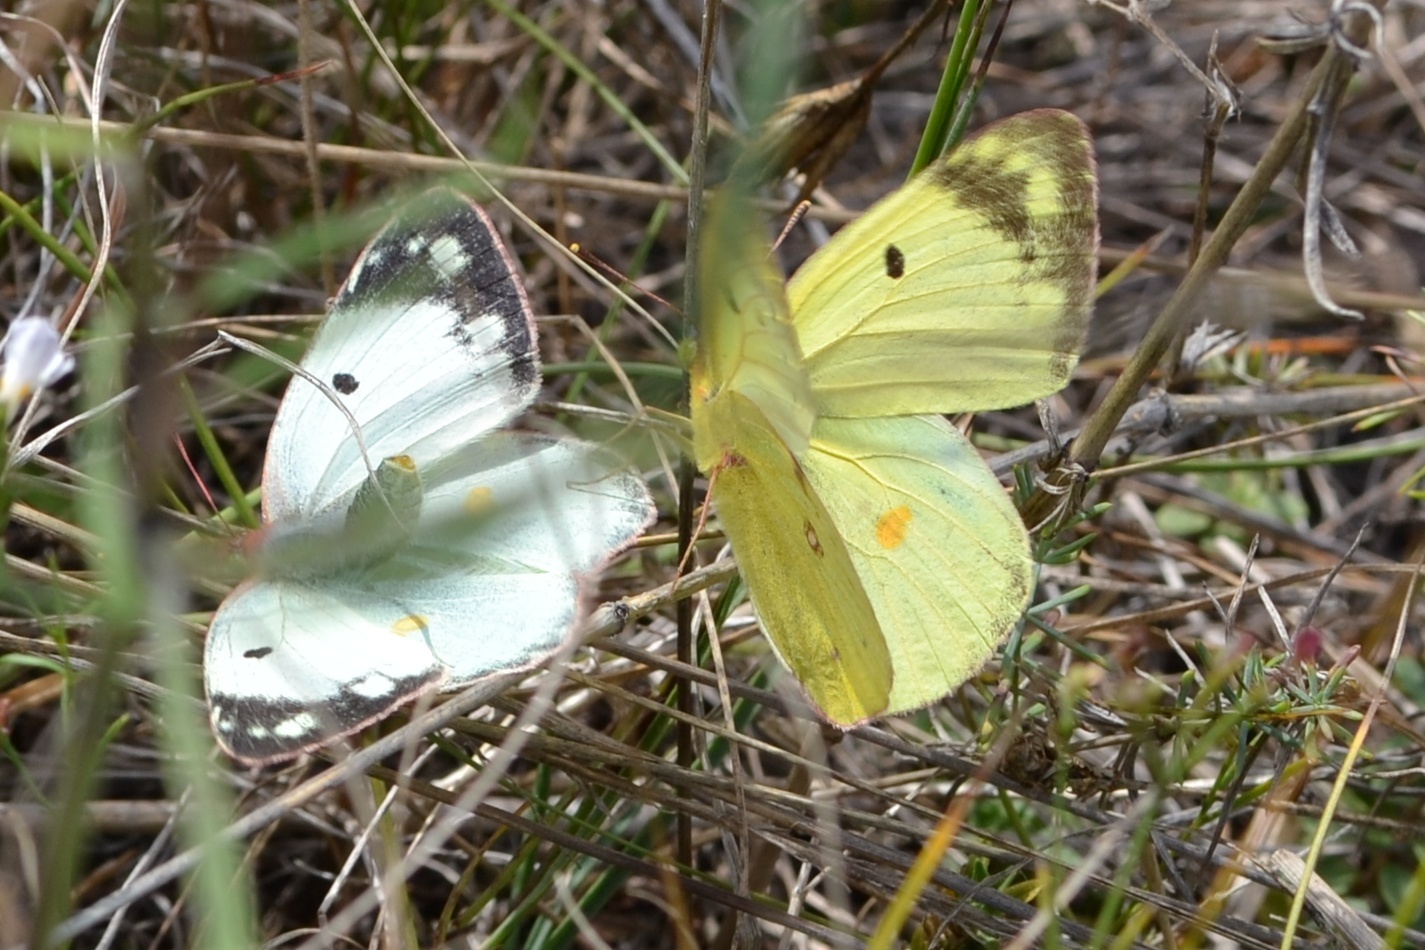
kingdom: Animalia
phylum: Arthropoda
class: Insecta
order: Lepidoptera
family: Pieridae
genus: Colias
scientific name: Colias alfacariensis
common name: Berger's clouded yellow
